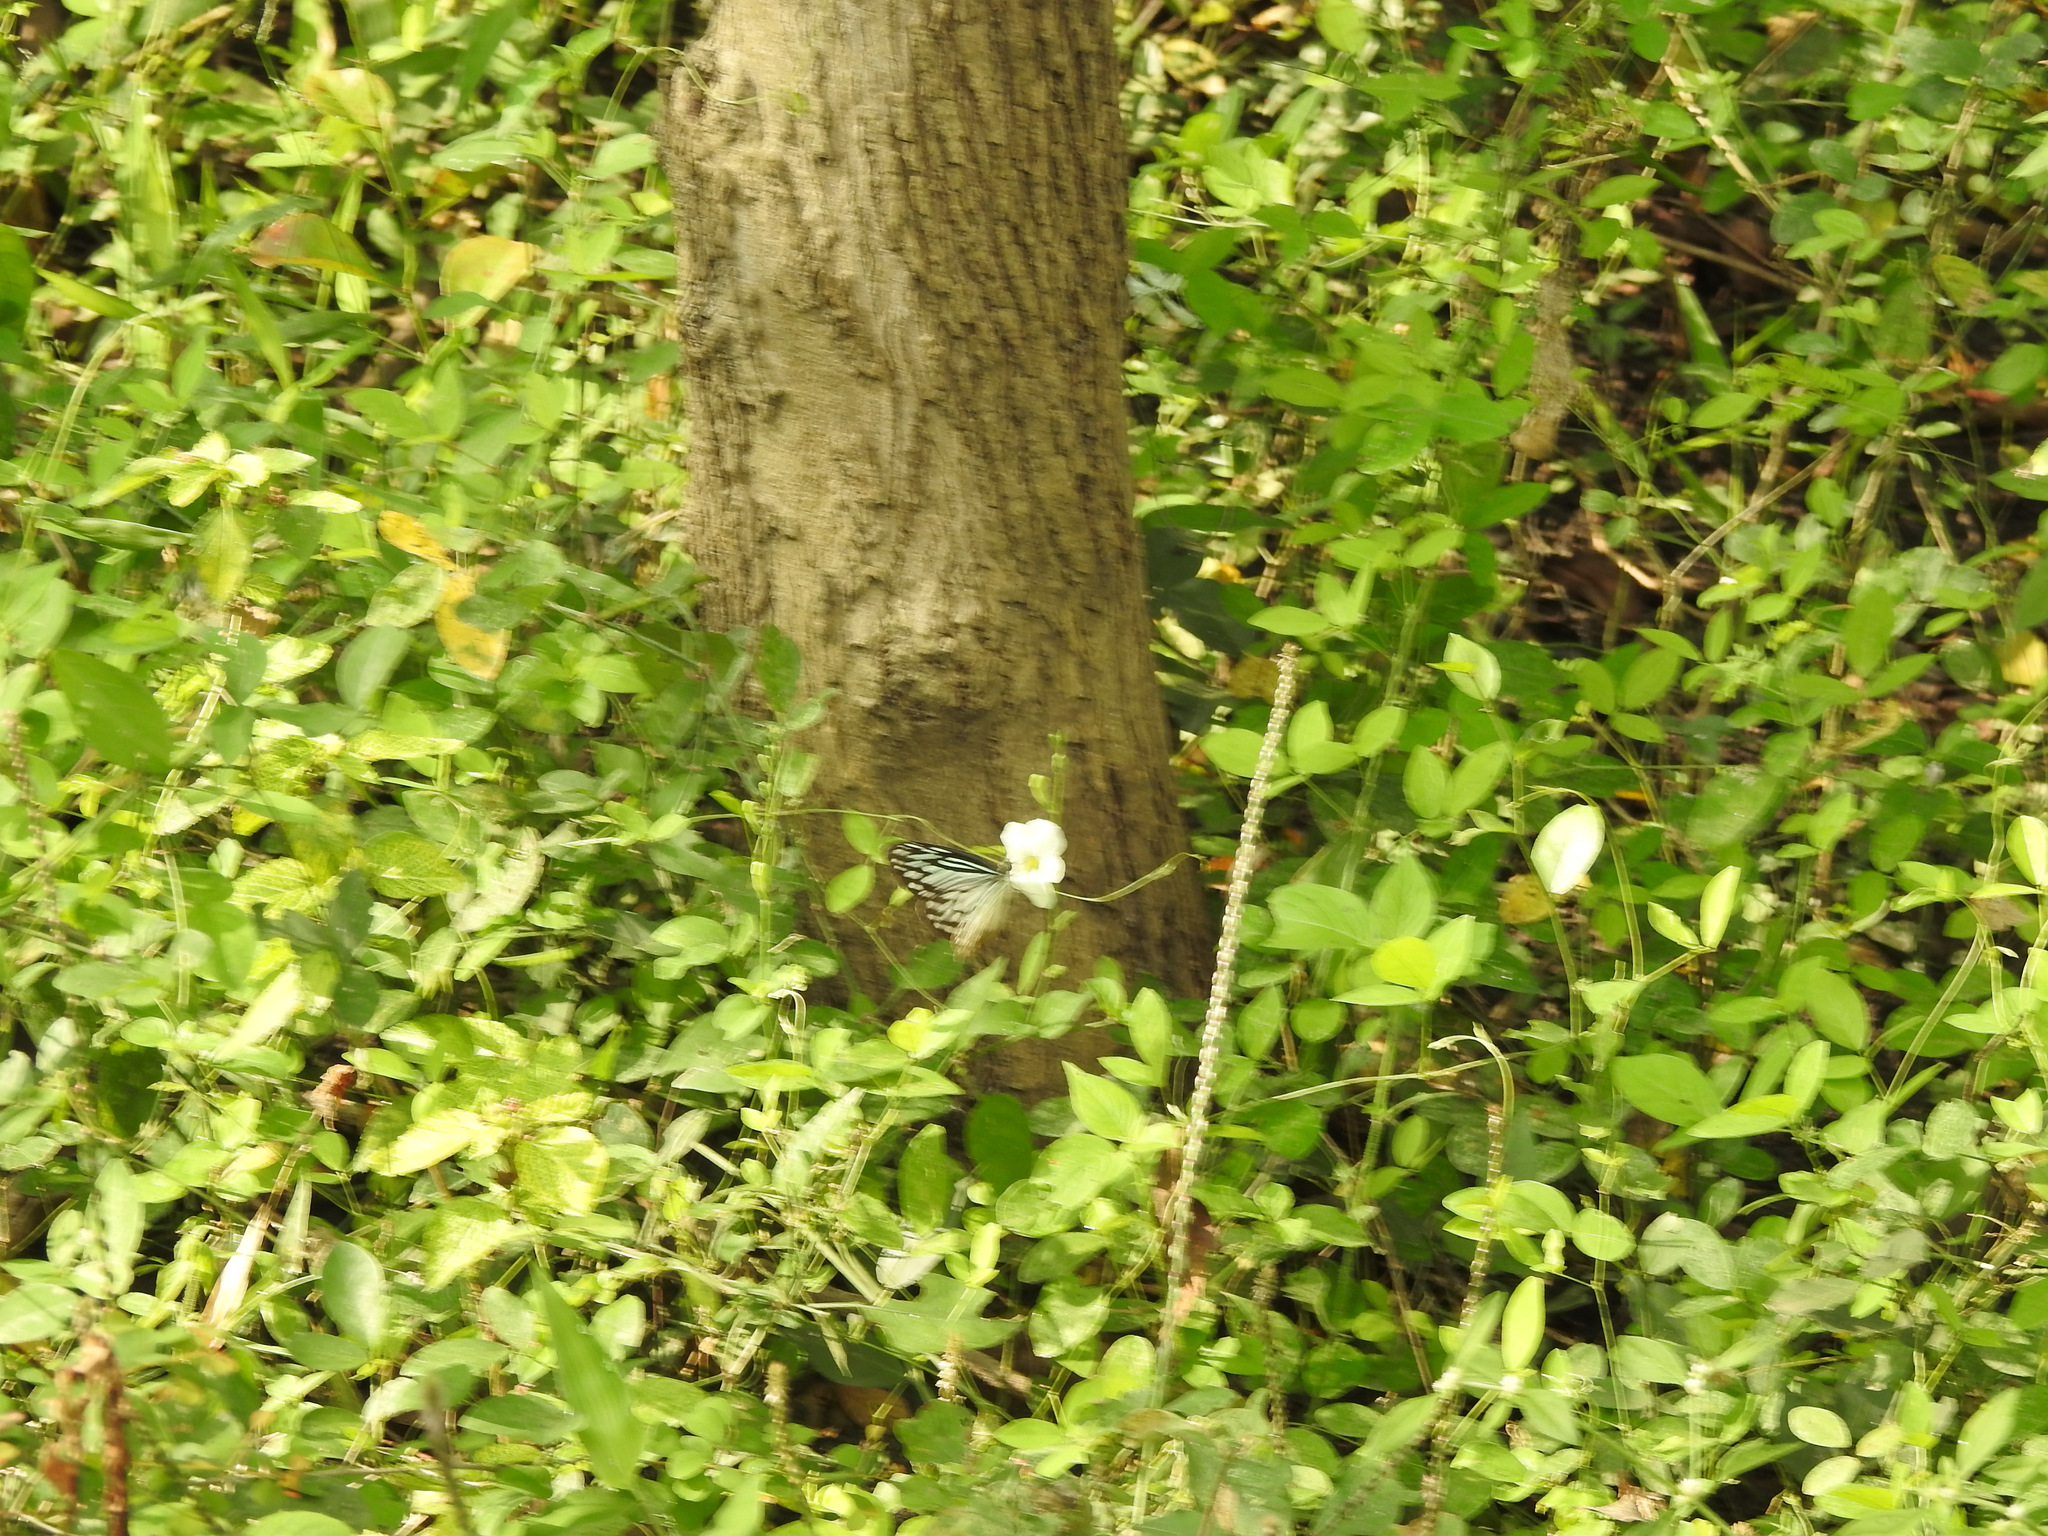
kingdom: Animalia
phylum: Arthropoda
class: Insecta
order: Lepidoptera
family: Pieridae
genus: Pareronia
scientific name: Pareronia hippia
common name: Indian wanderer
